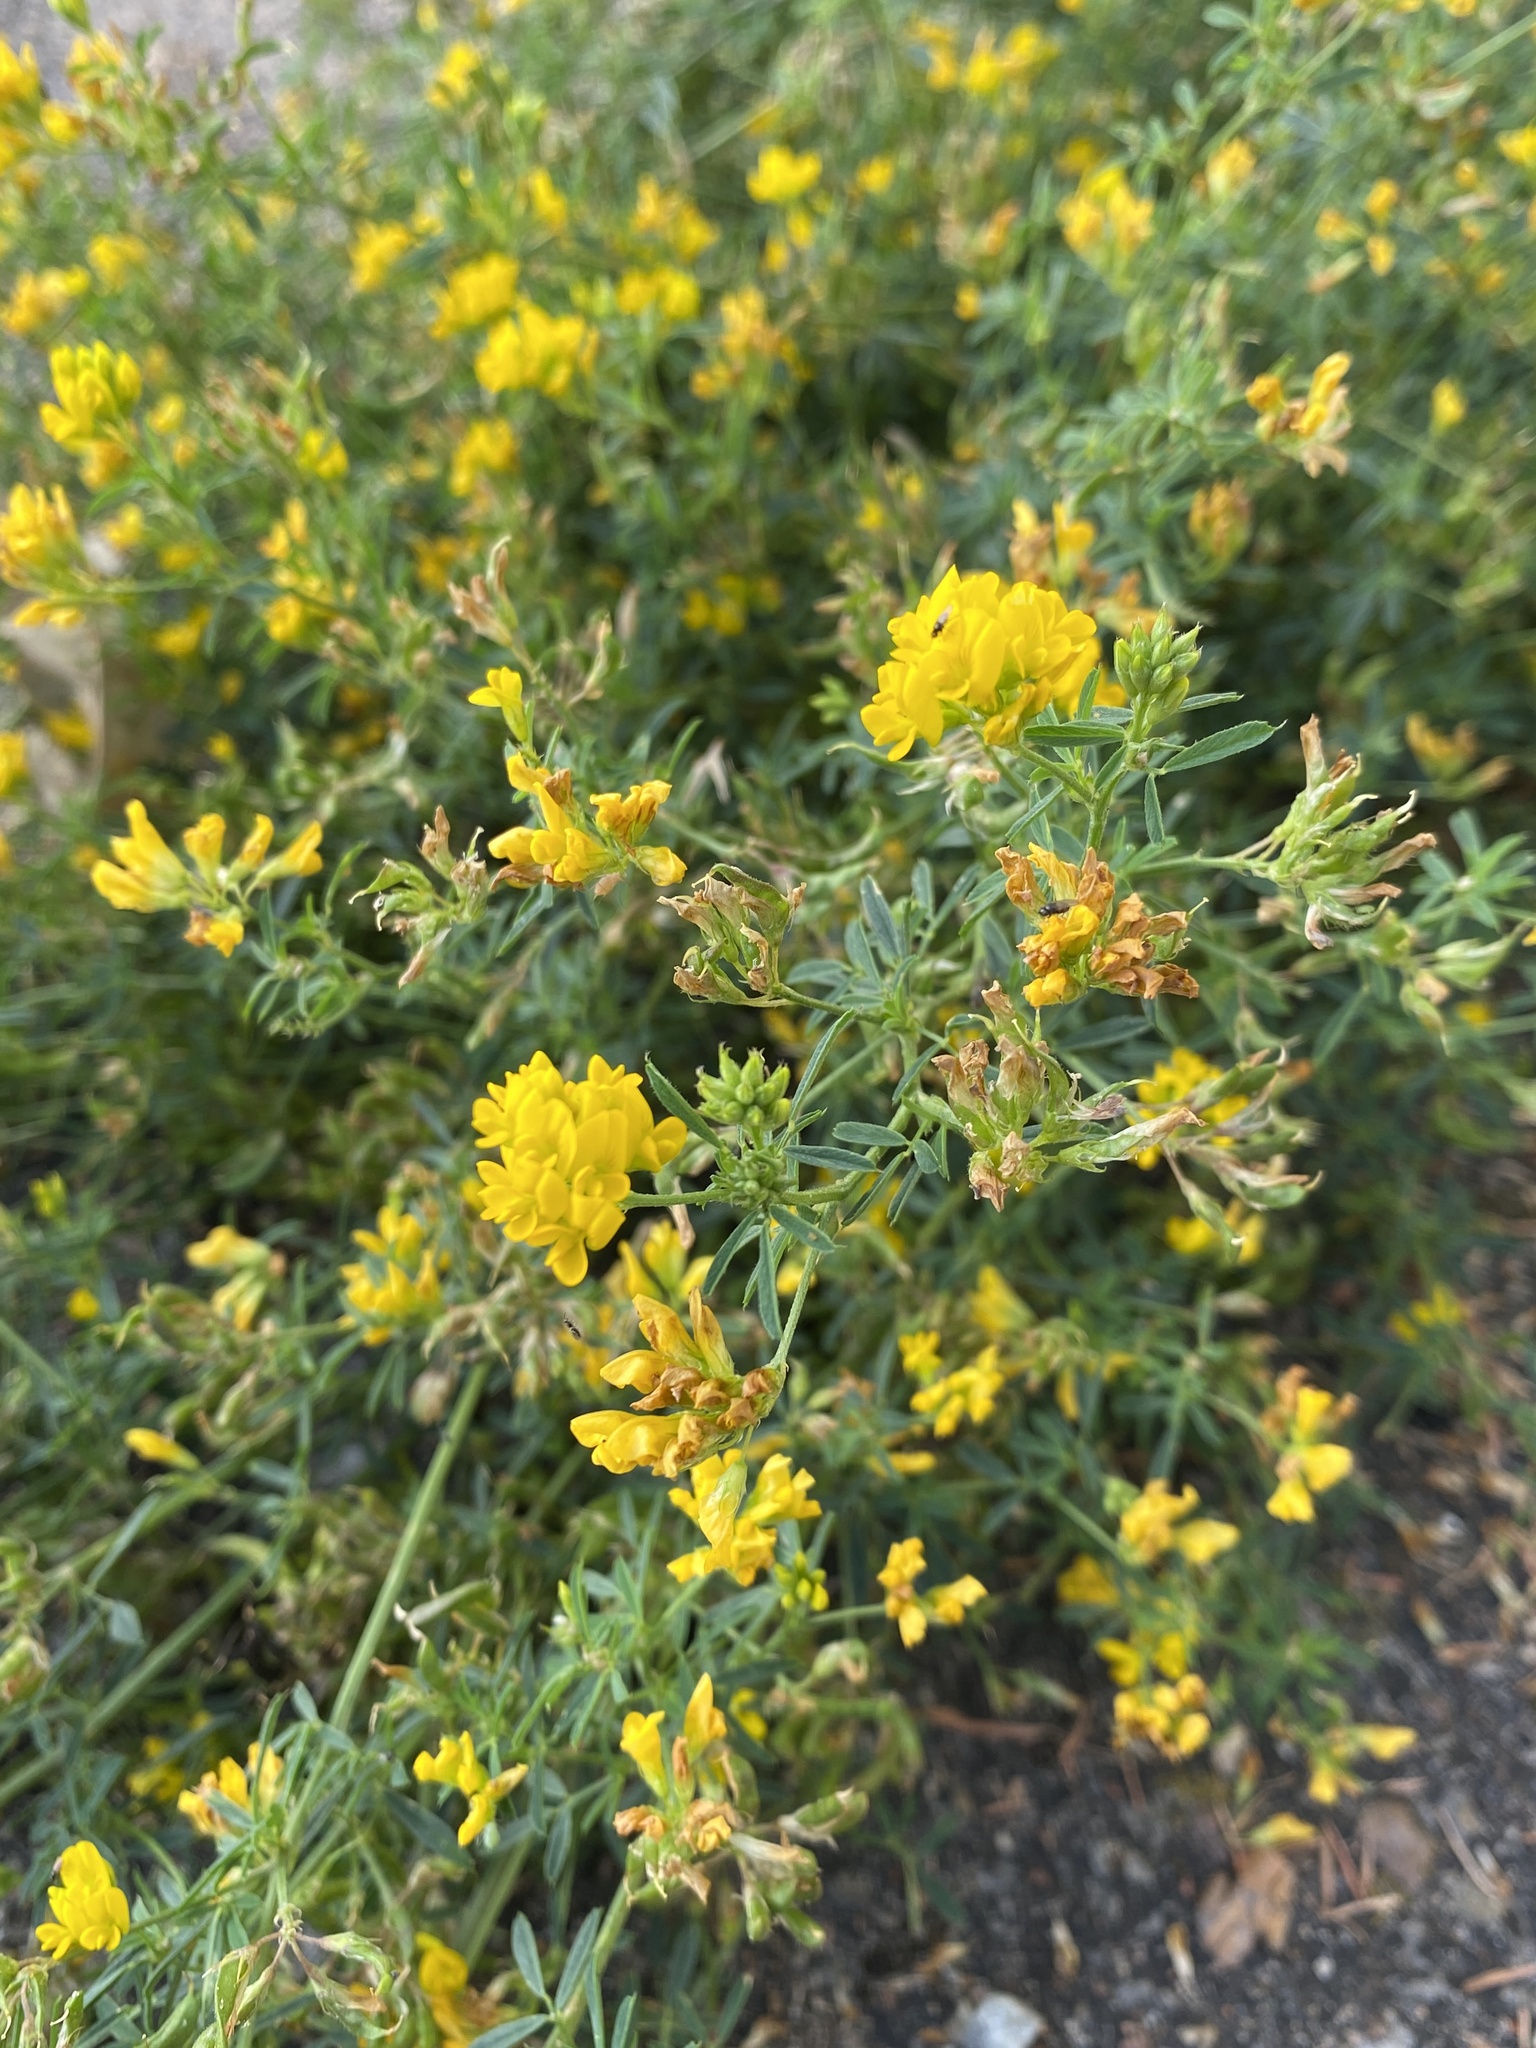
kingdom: Plantae
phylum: Tracheophyta
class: Magnoliopsida
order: Fabales
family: Fabaceae
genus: Medicago
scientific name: Medicago falcata
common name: Sickle medick
